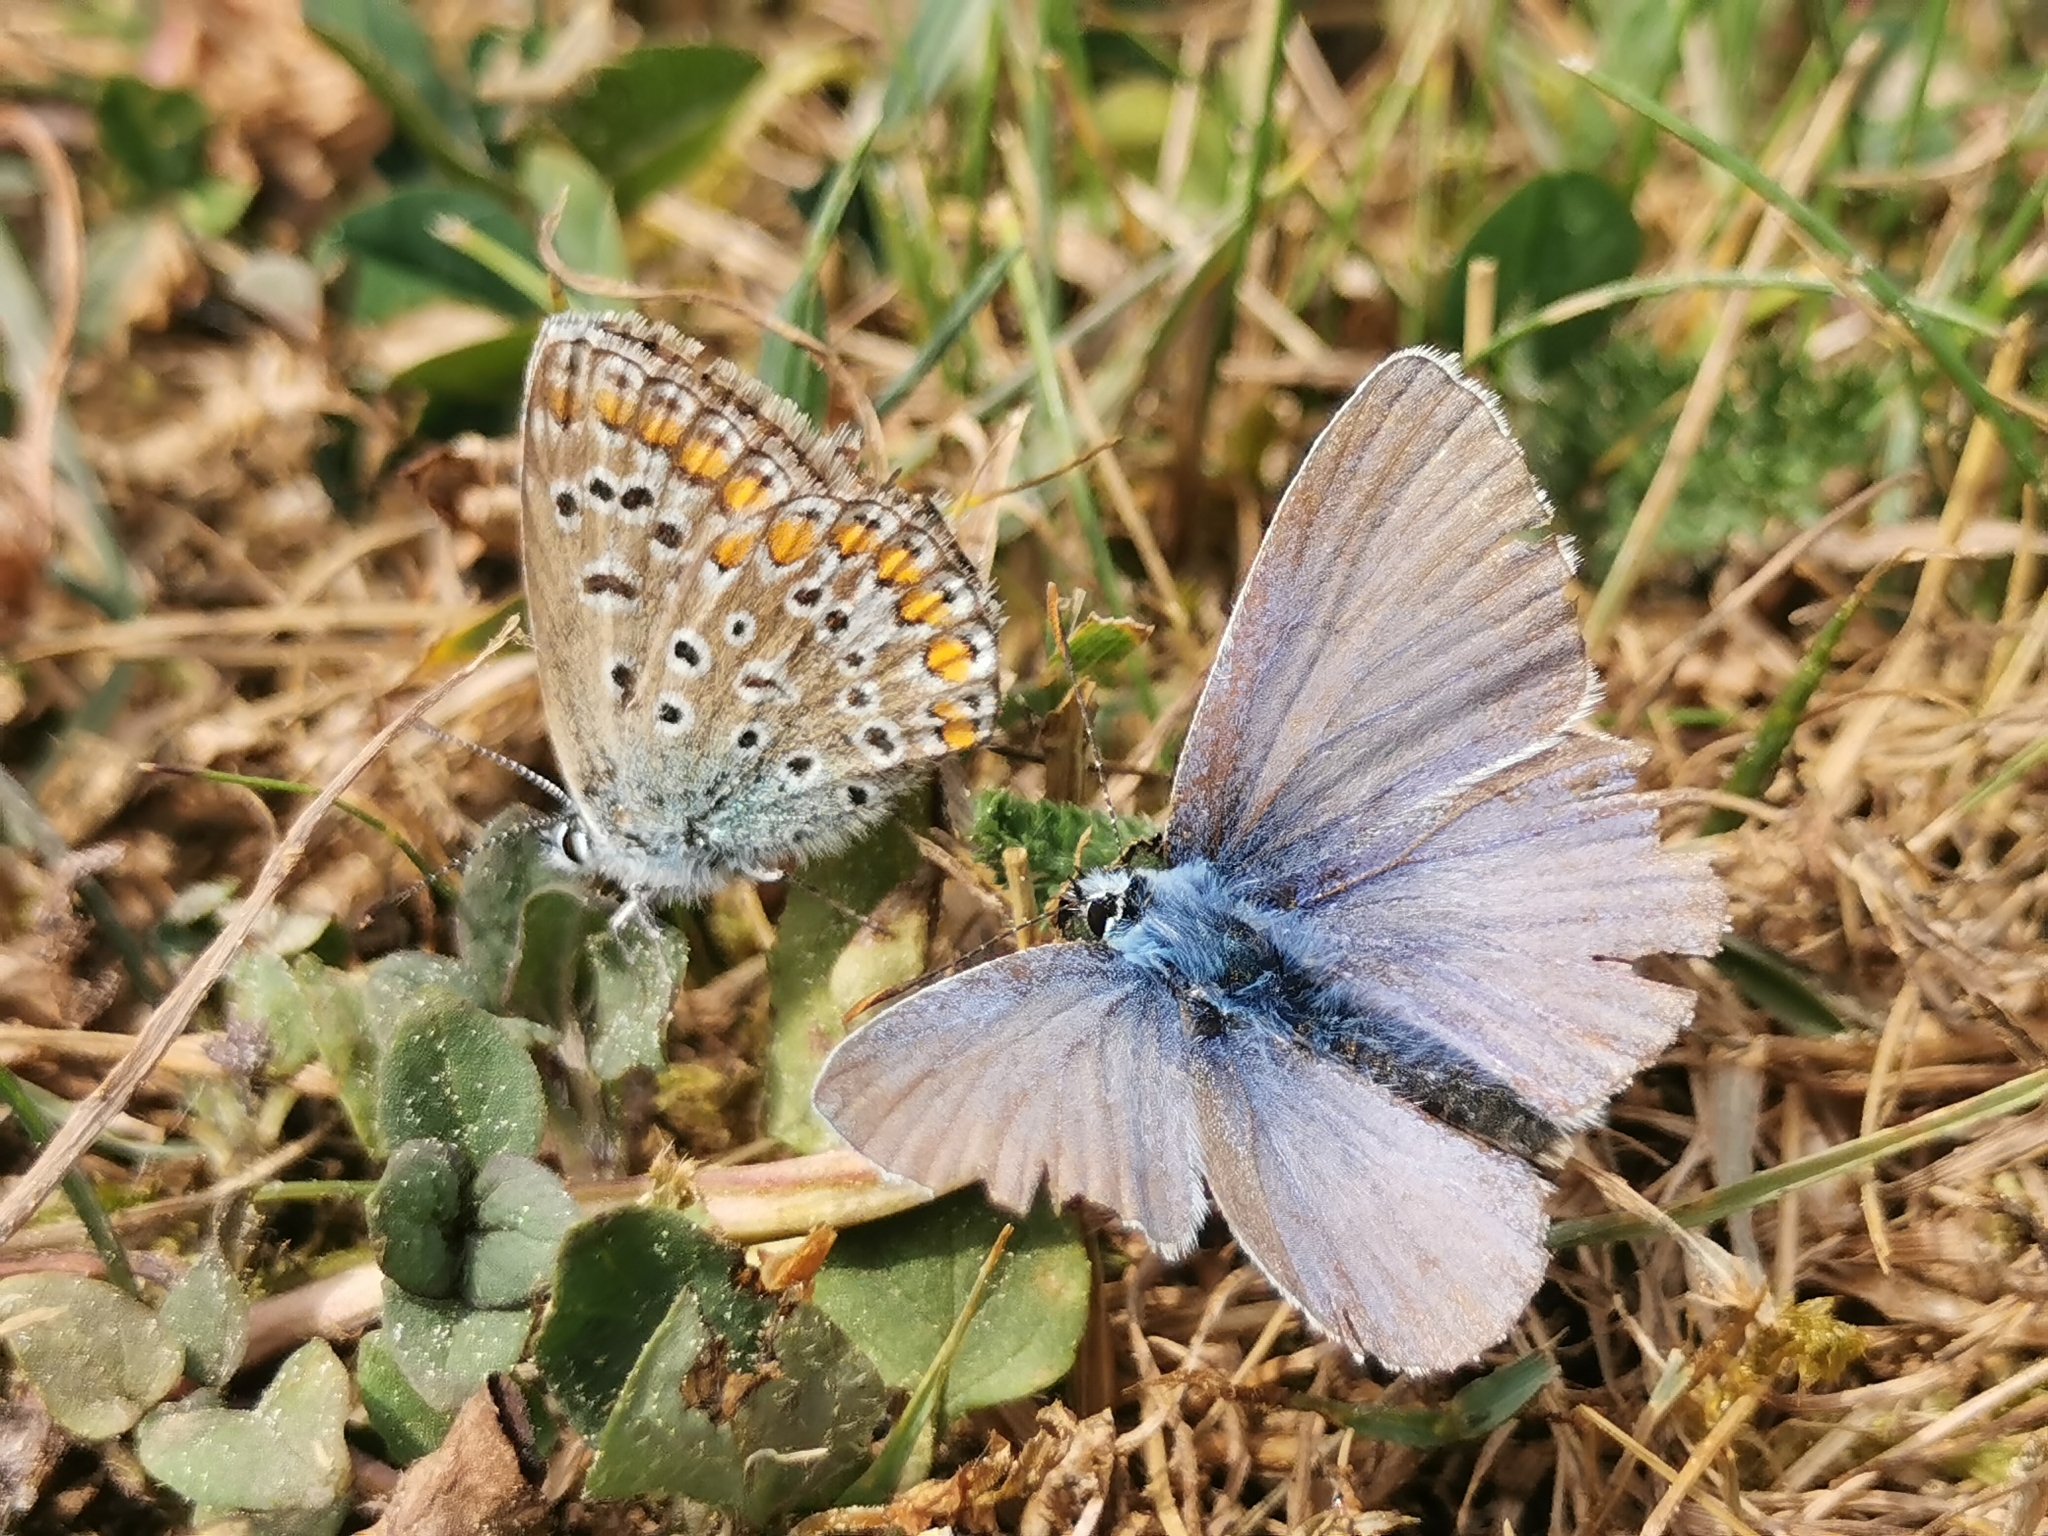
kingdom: Animalia
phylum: Arthropoda
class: Insecta
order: Lepidoptera
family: Lycaenidae
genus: Polyommatus
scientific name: Polyommatus icarus
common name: Common blue
